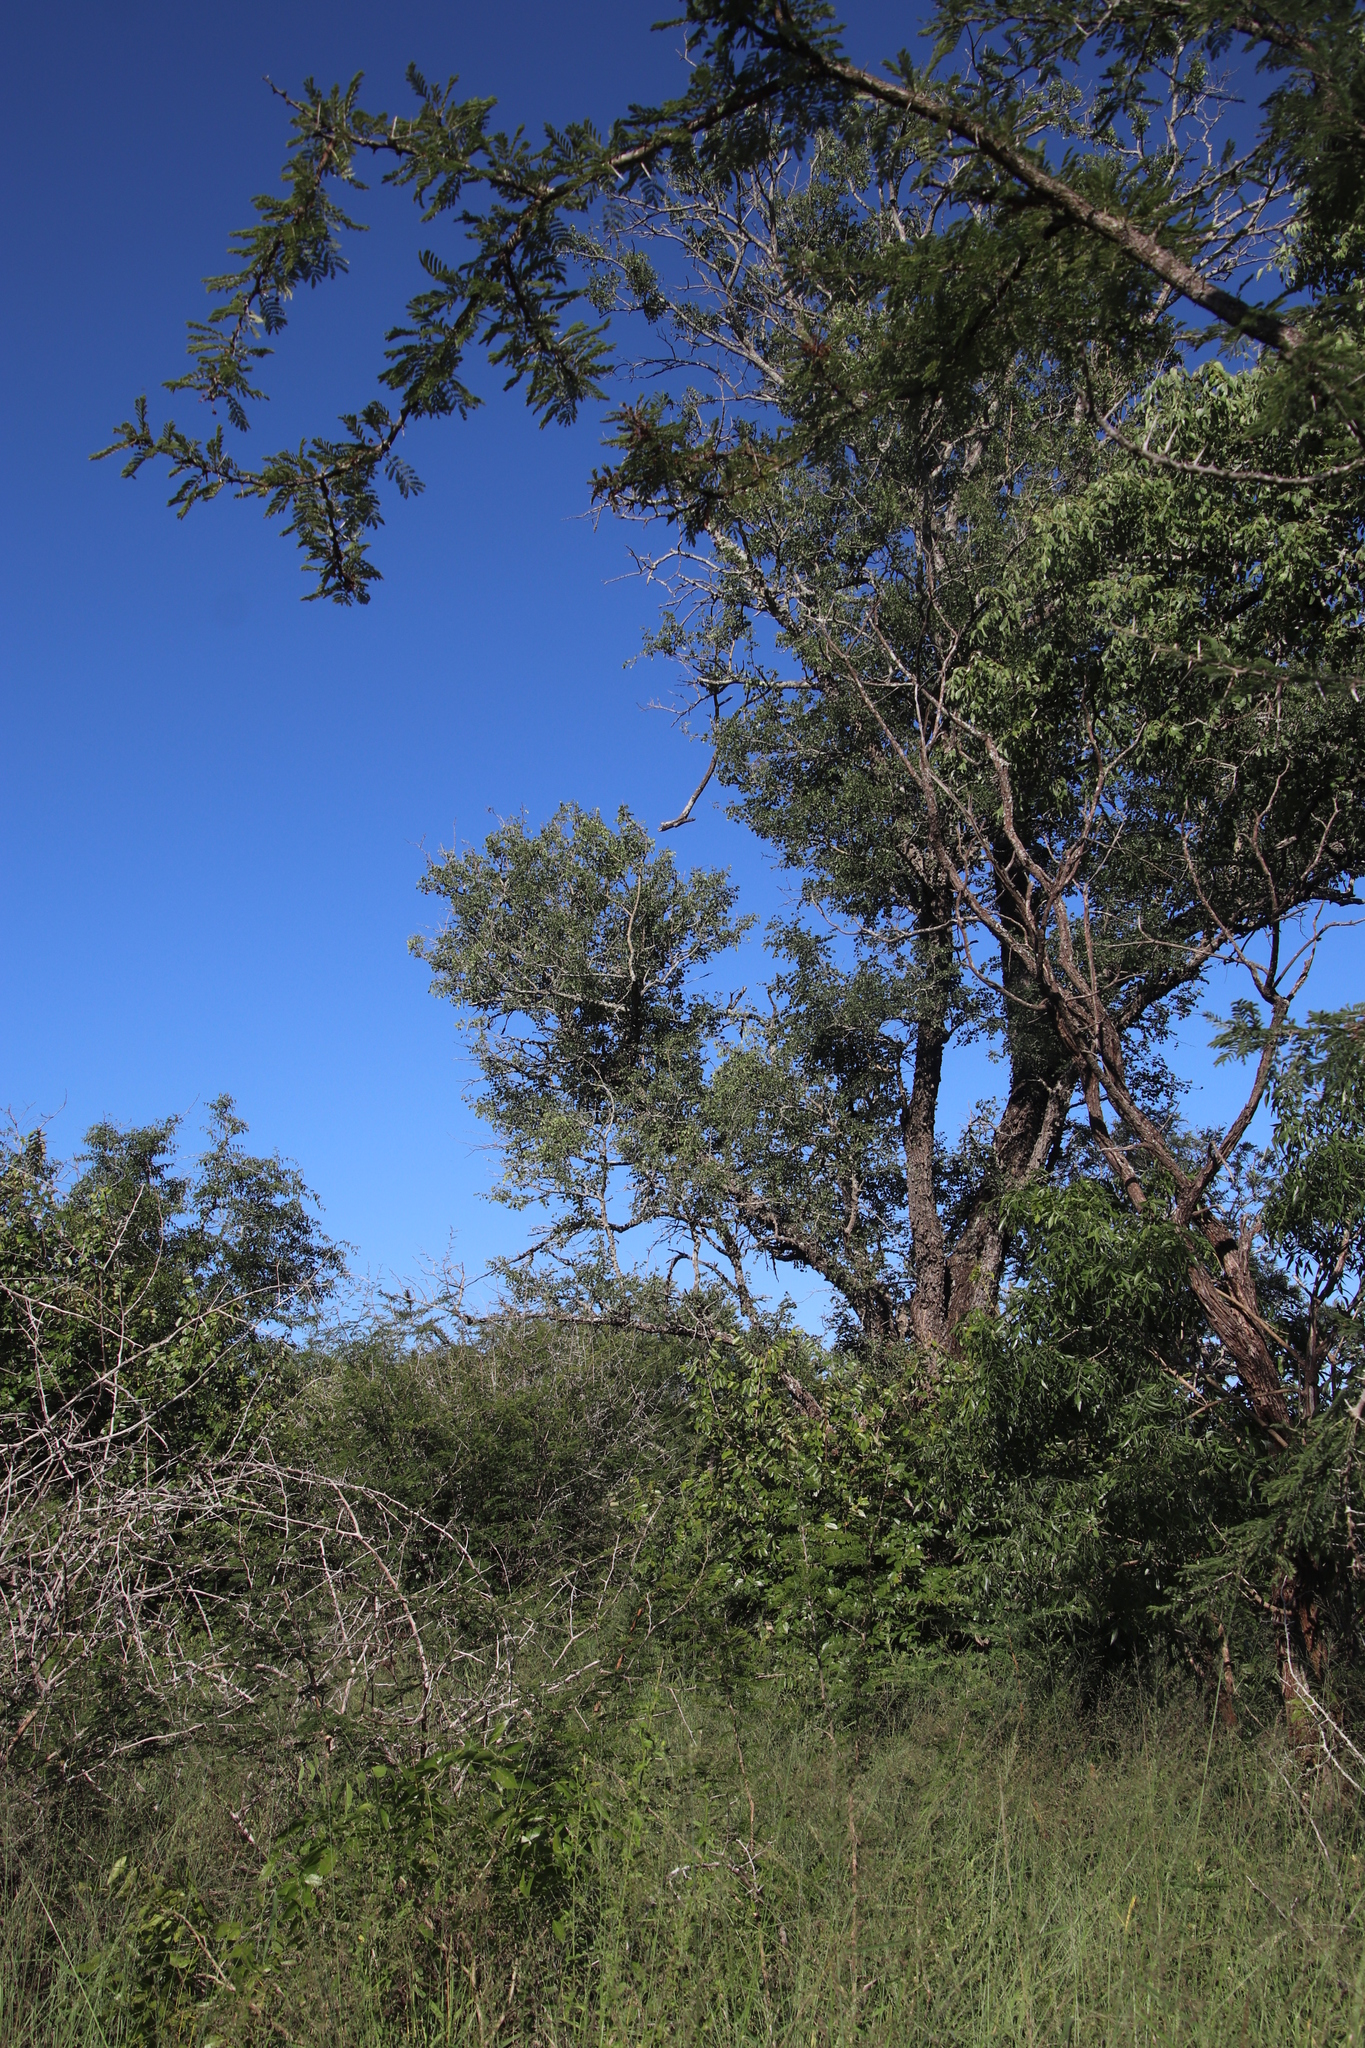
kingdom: Plantae
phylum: Tracheophyta
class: Magnoliopsida
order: Fabales
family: Fabaceae
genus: Senegalia
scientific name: Senegalia nigrescens
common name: Knobthorn
